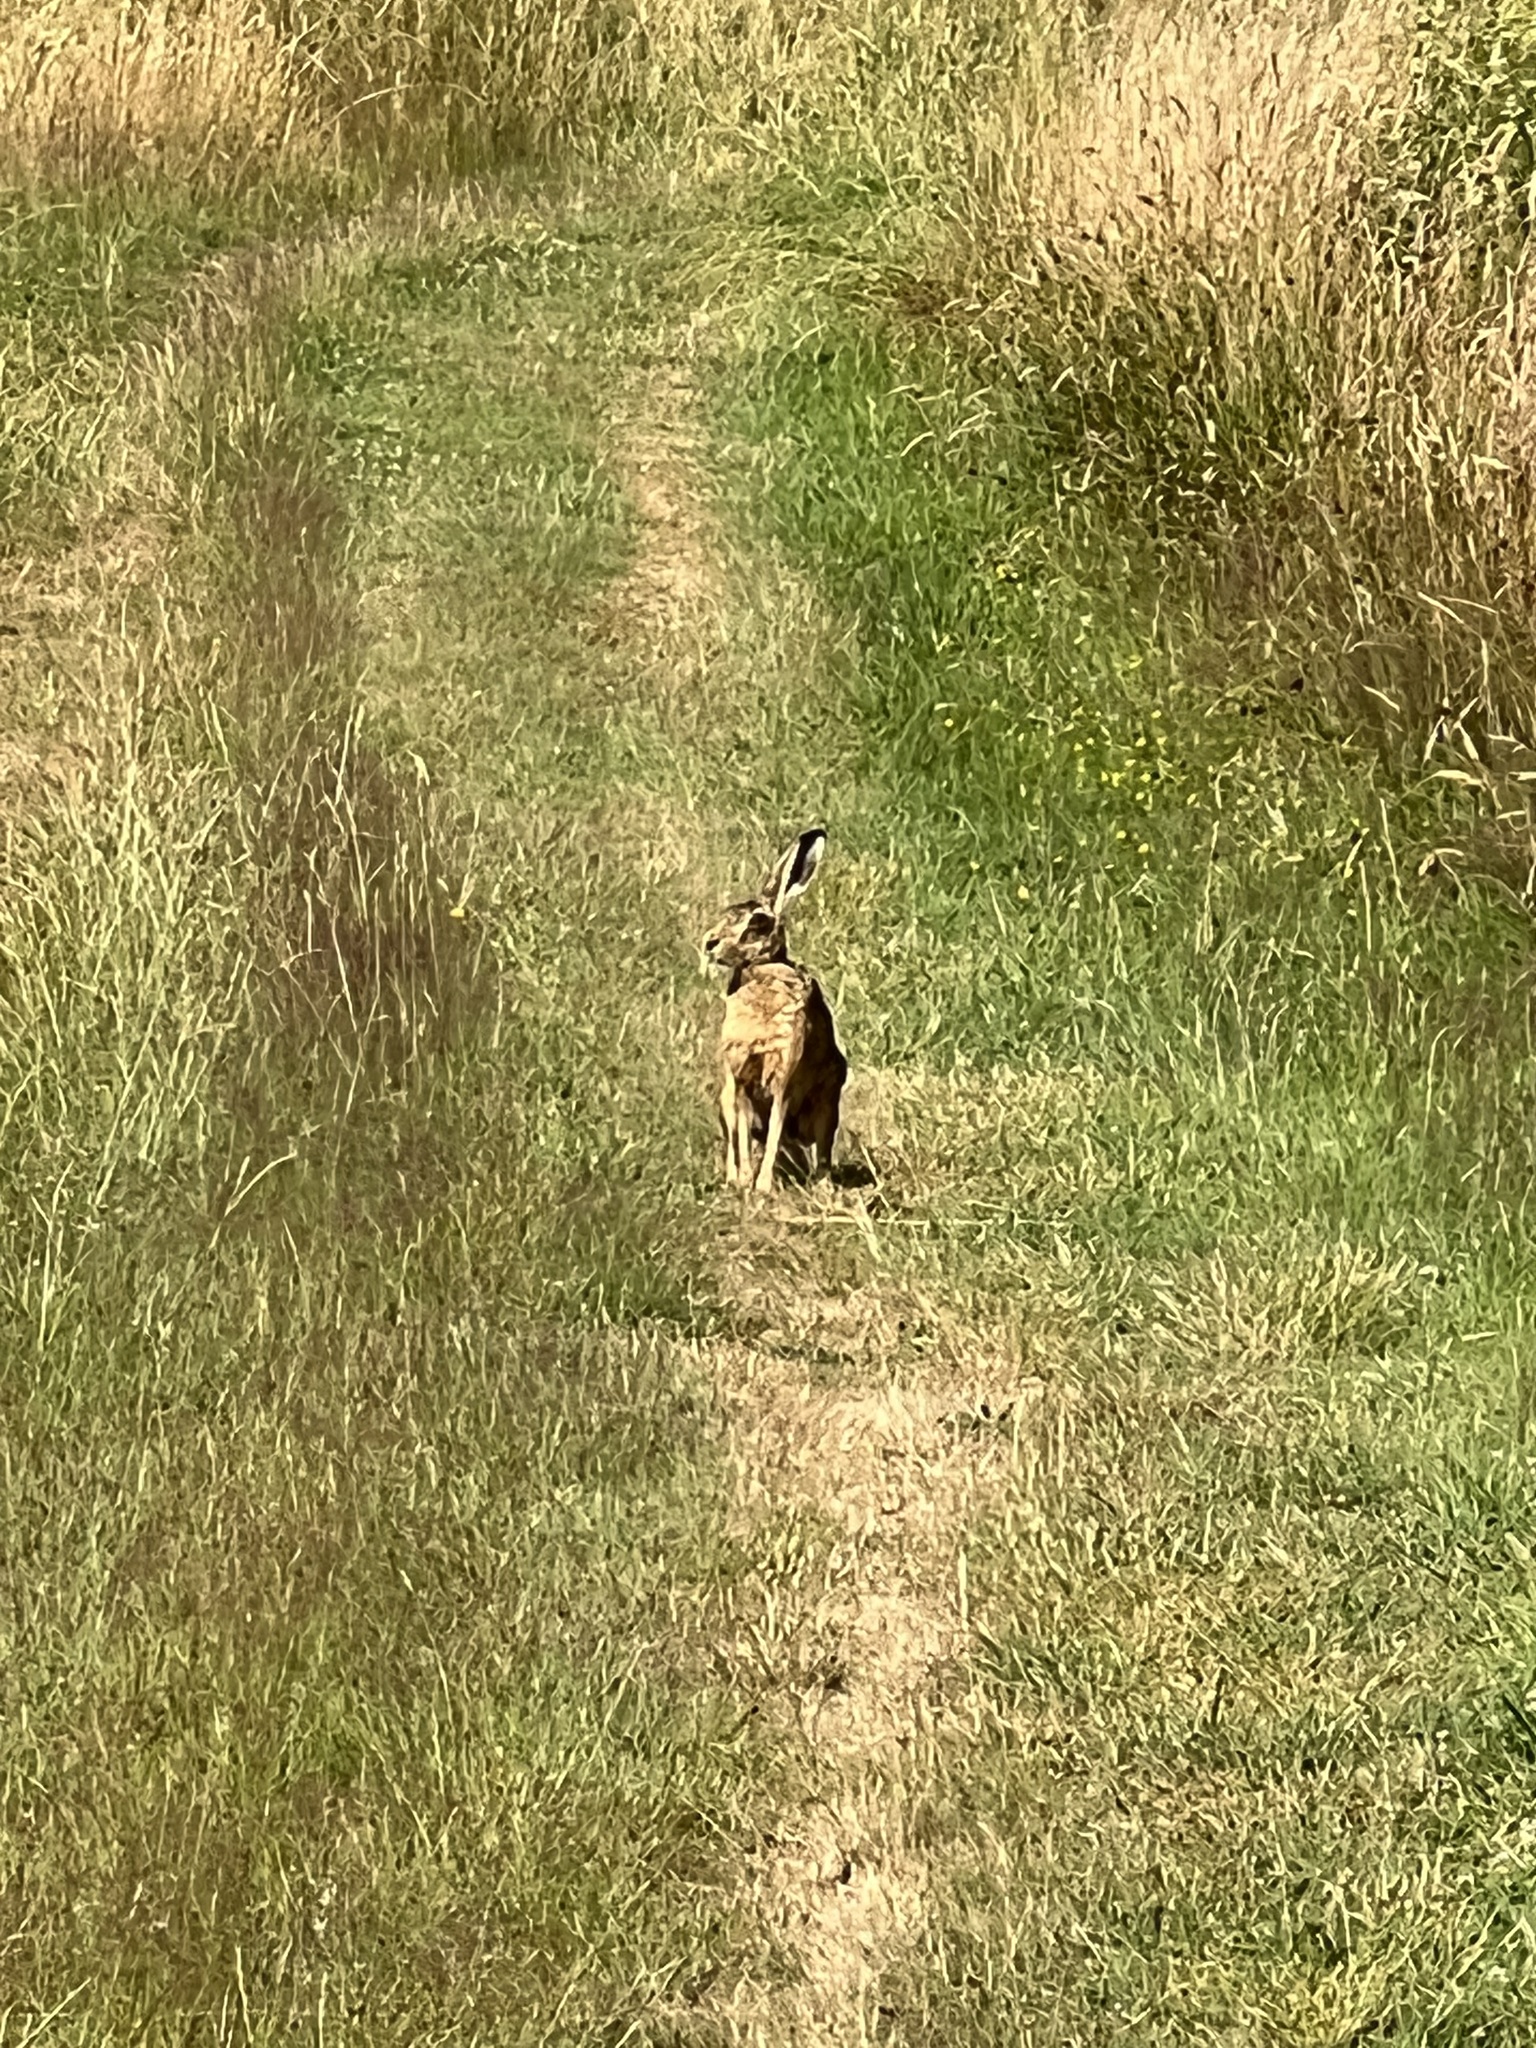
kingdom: Animalia
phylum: Chordata
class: Mammalia
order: Lagomorpha
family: Leporidae
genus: Lepus
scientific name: Lepus europaeus
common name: European hare
